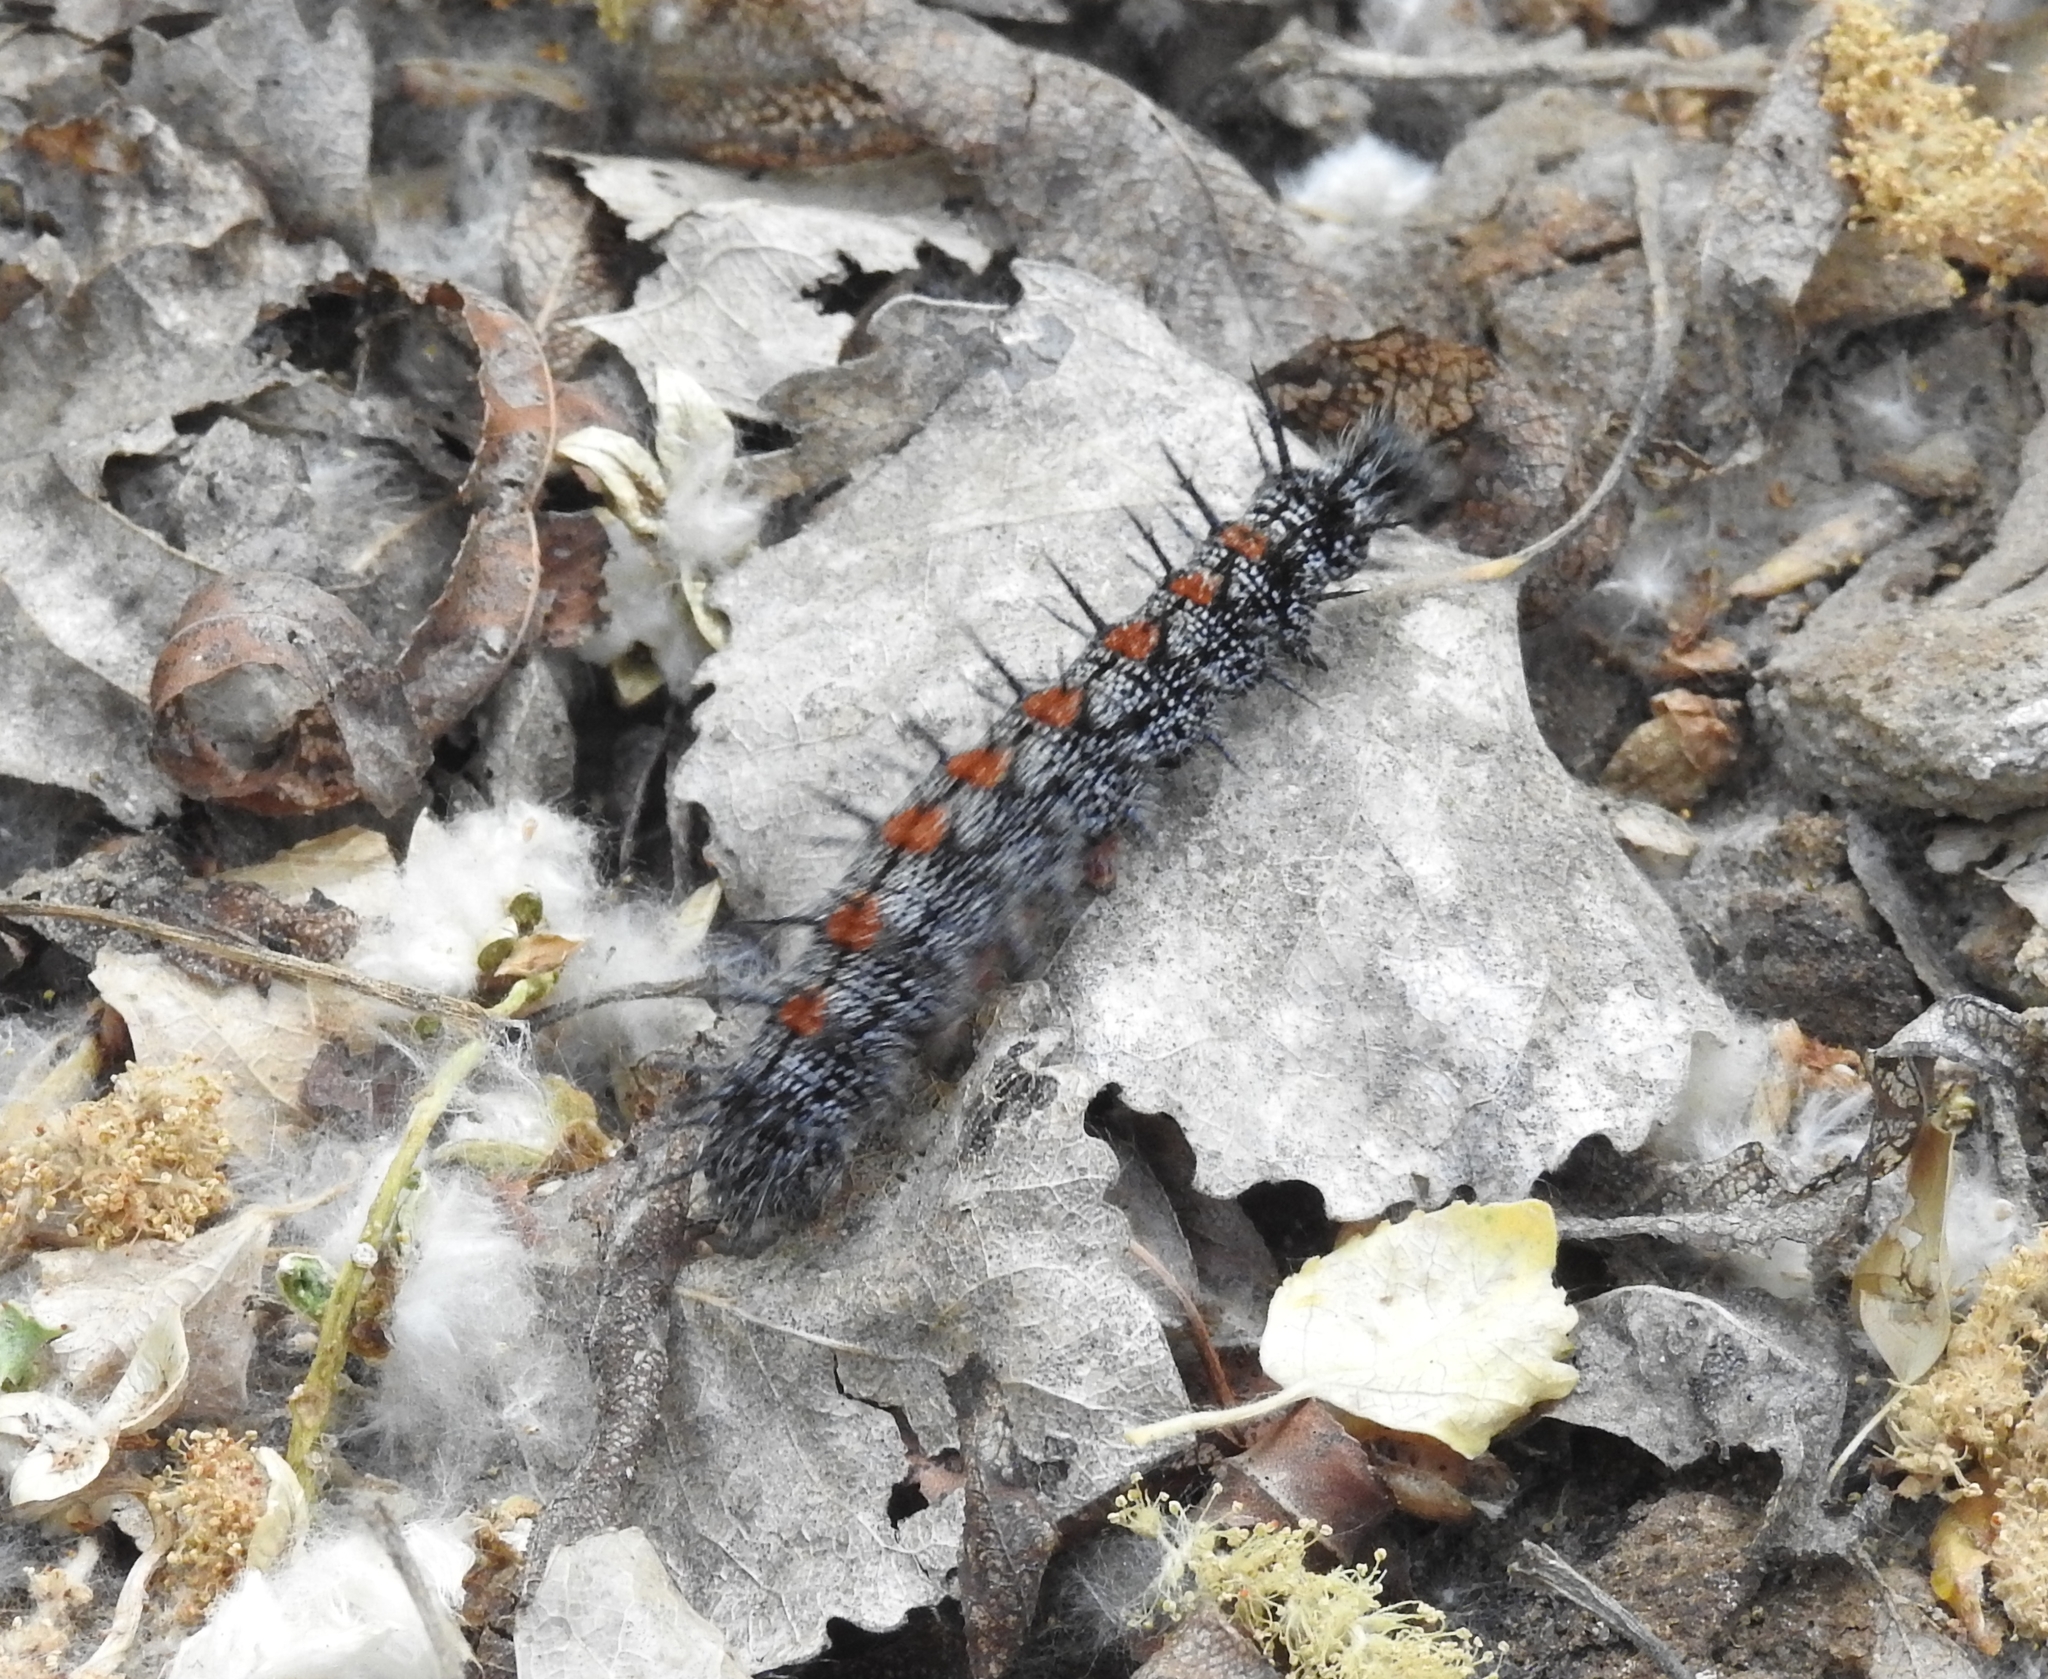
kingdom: Animalia
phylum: Arthropoda
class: Insecta
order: Lepidoptera
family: Nymphalidae
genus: Nymphalis
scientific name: Nymphalis antiopa
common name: Camberwell beauty
